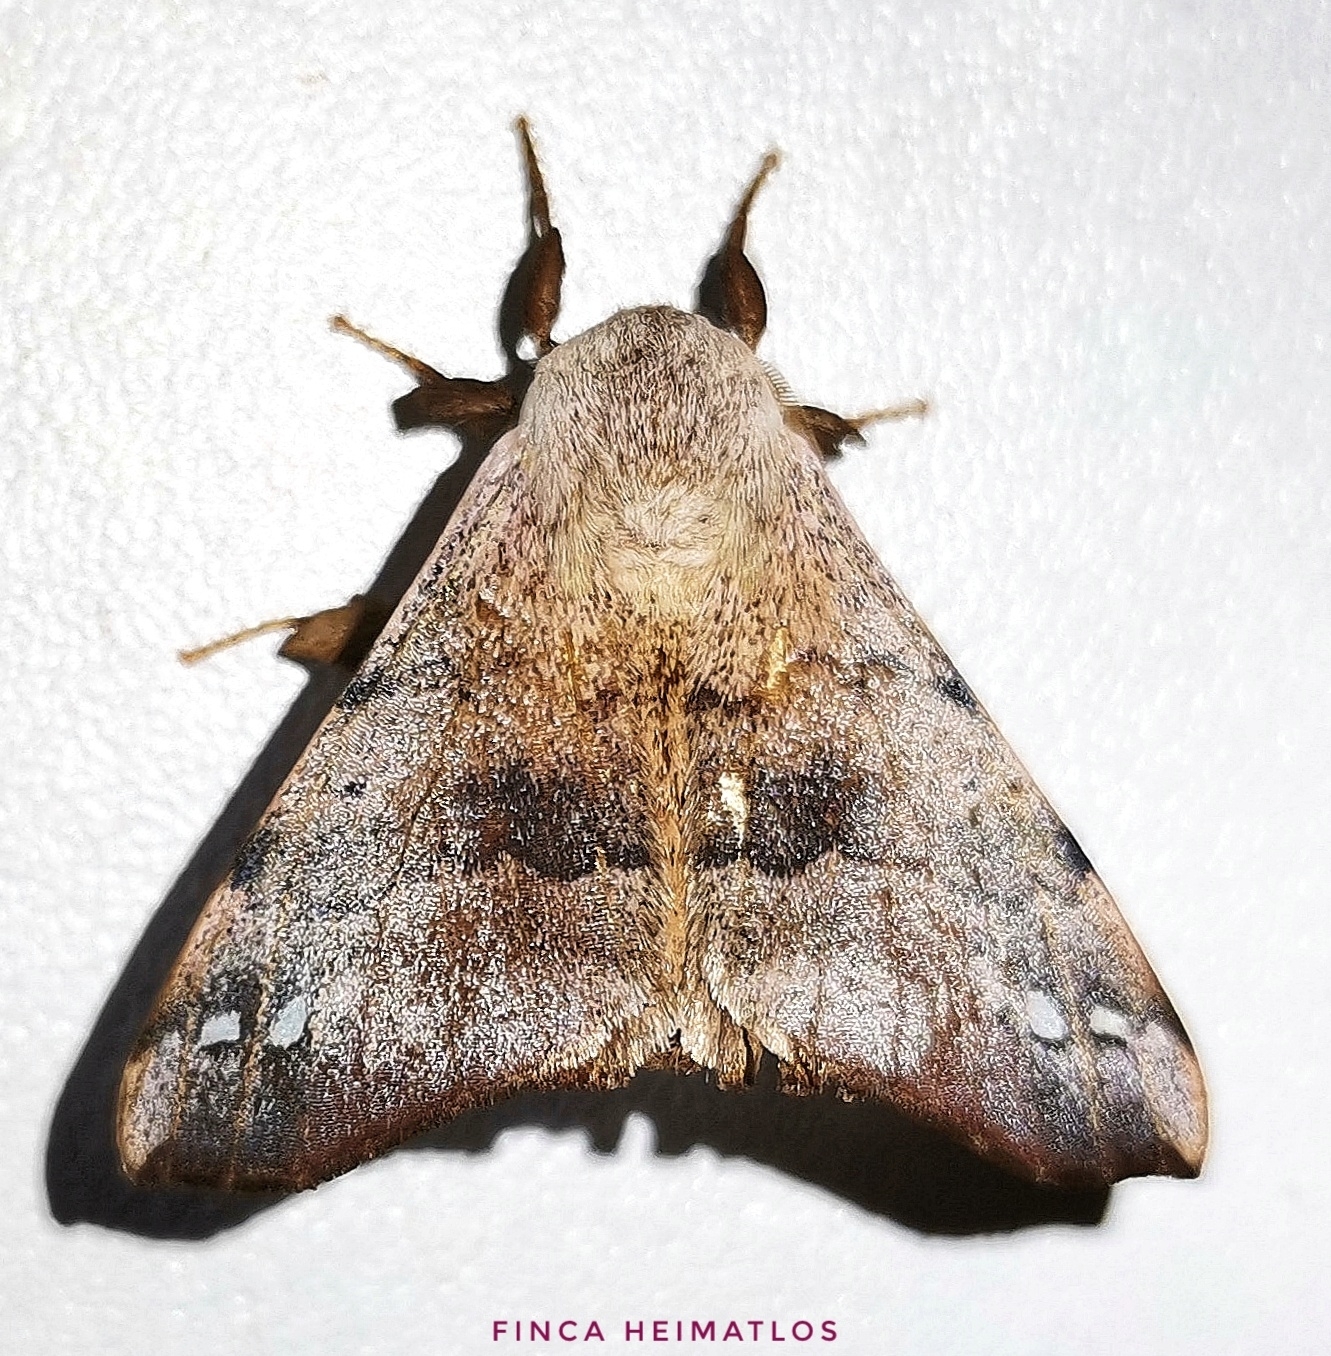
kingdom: Animalia
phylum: Arthropoda
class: Insecta
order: Lepidoptera
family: Apatelodidae
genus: Hygrochroa
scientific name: Hygrochroa Apatelodes anna
